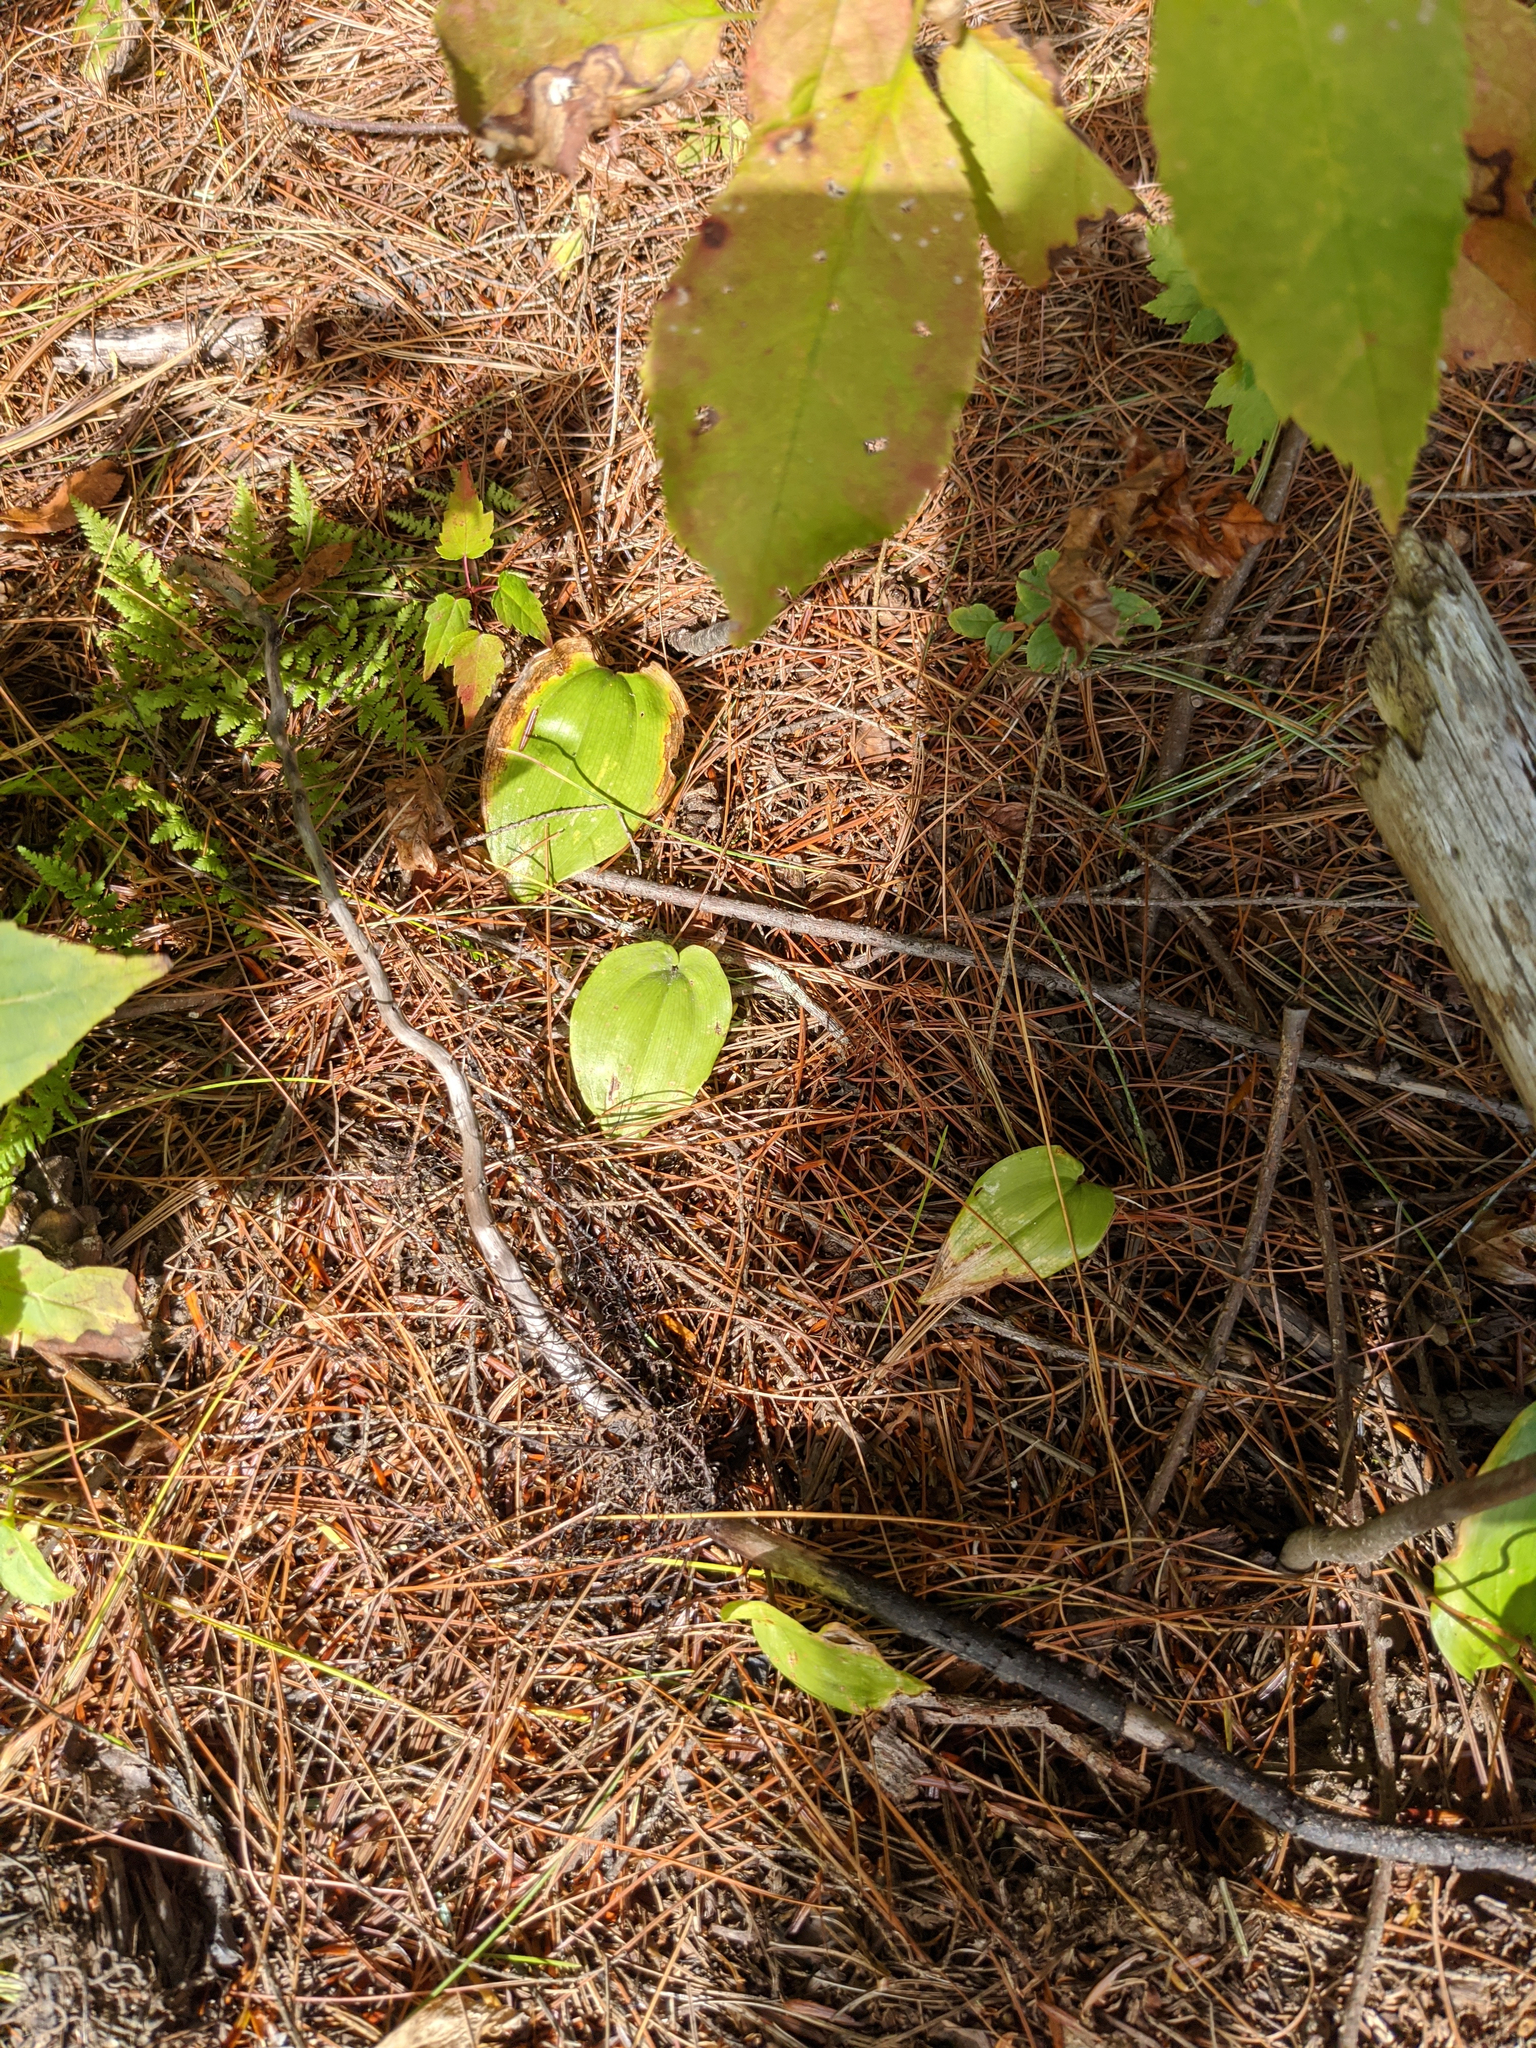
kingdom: Plantae
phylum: Tracheophyta
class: Liliopsida
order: Asparagales
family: Asparagaceae
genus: Maianthemum
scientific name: Maianthemum canadense
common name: False lily-of-the-valley
